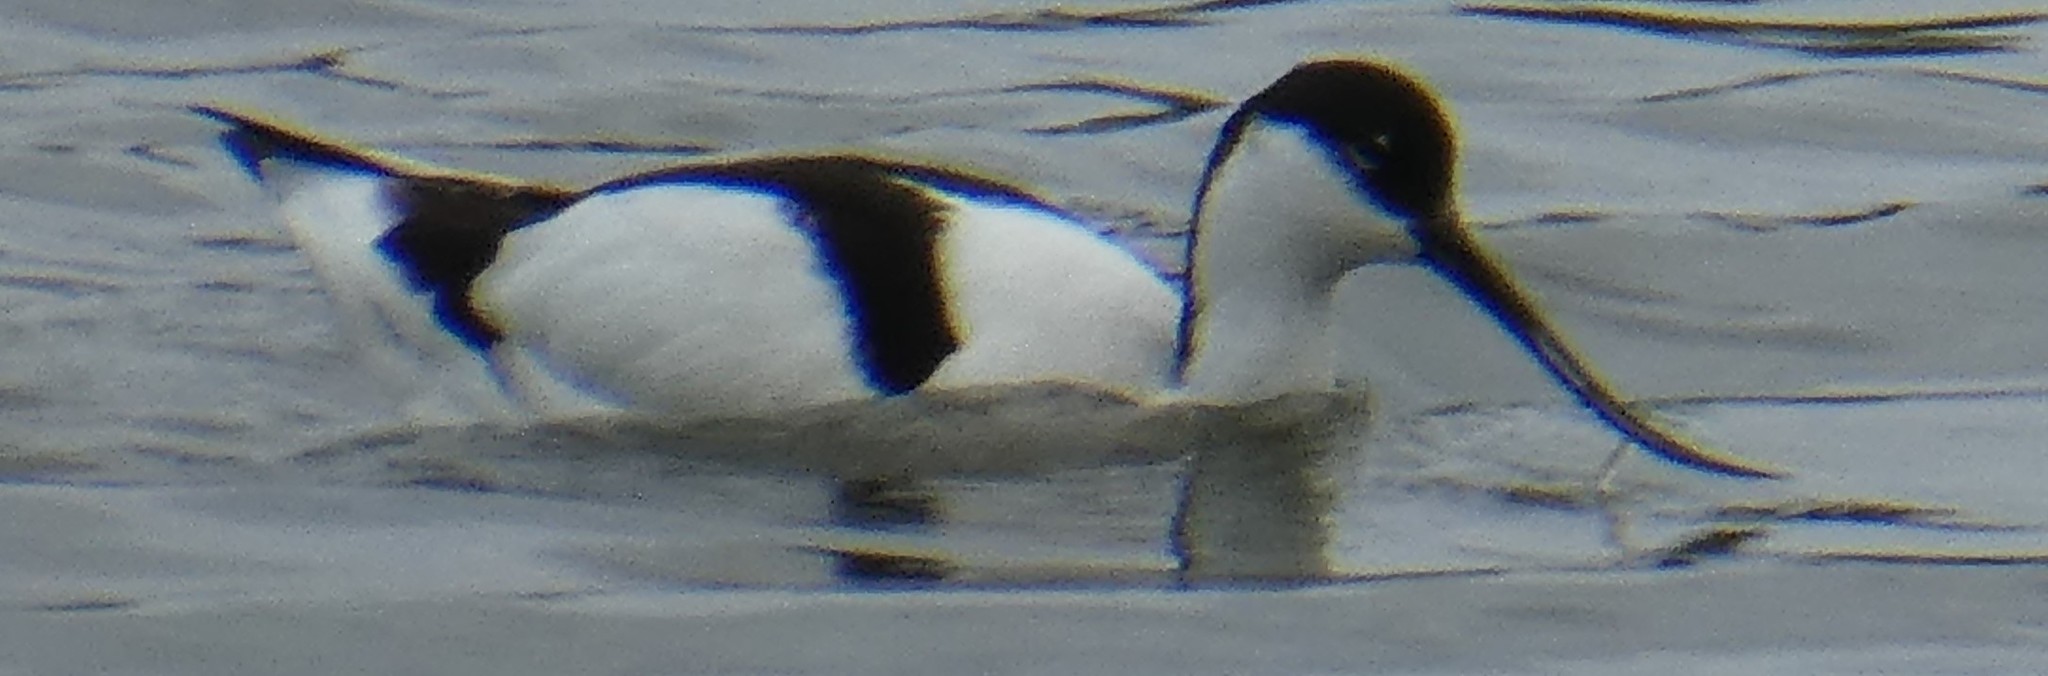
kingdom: Animalia
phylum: Chordata
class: Aves
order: Charadriiformes
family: Recurvirostridae
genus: Recurvirostra
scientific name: Recurvirostra avosetta
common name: Pied avocet
